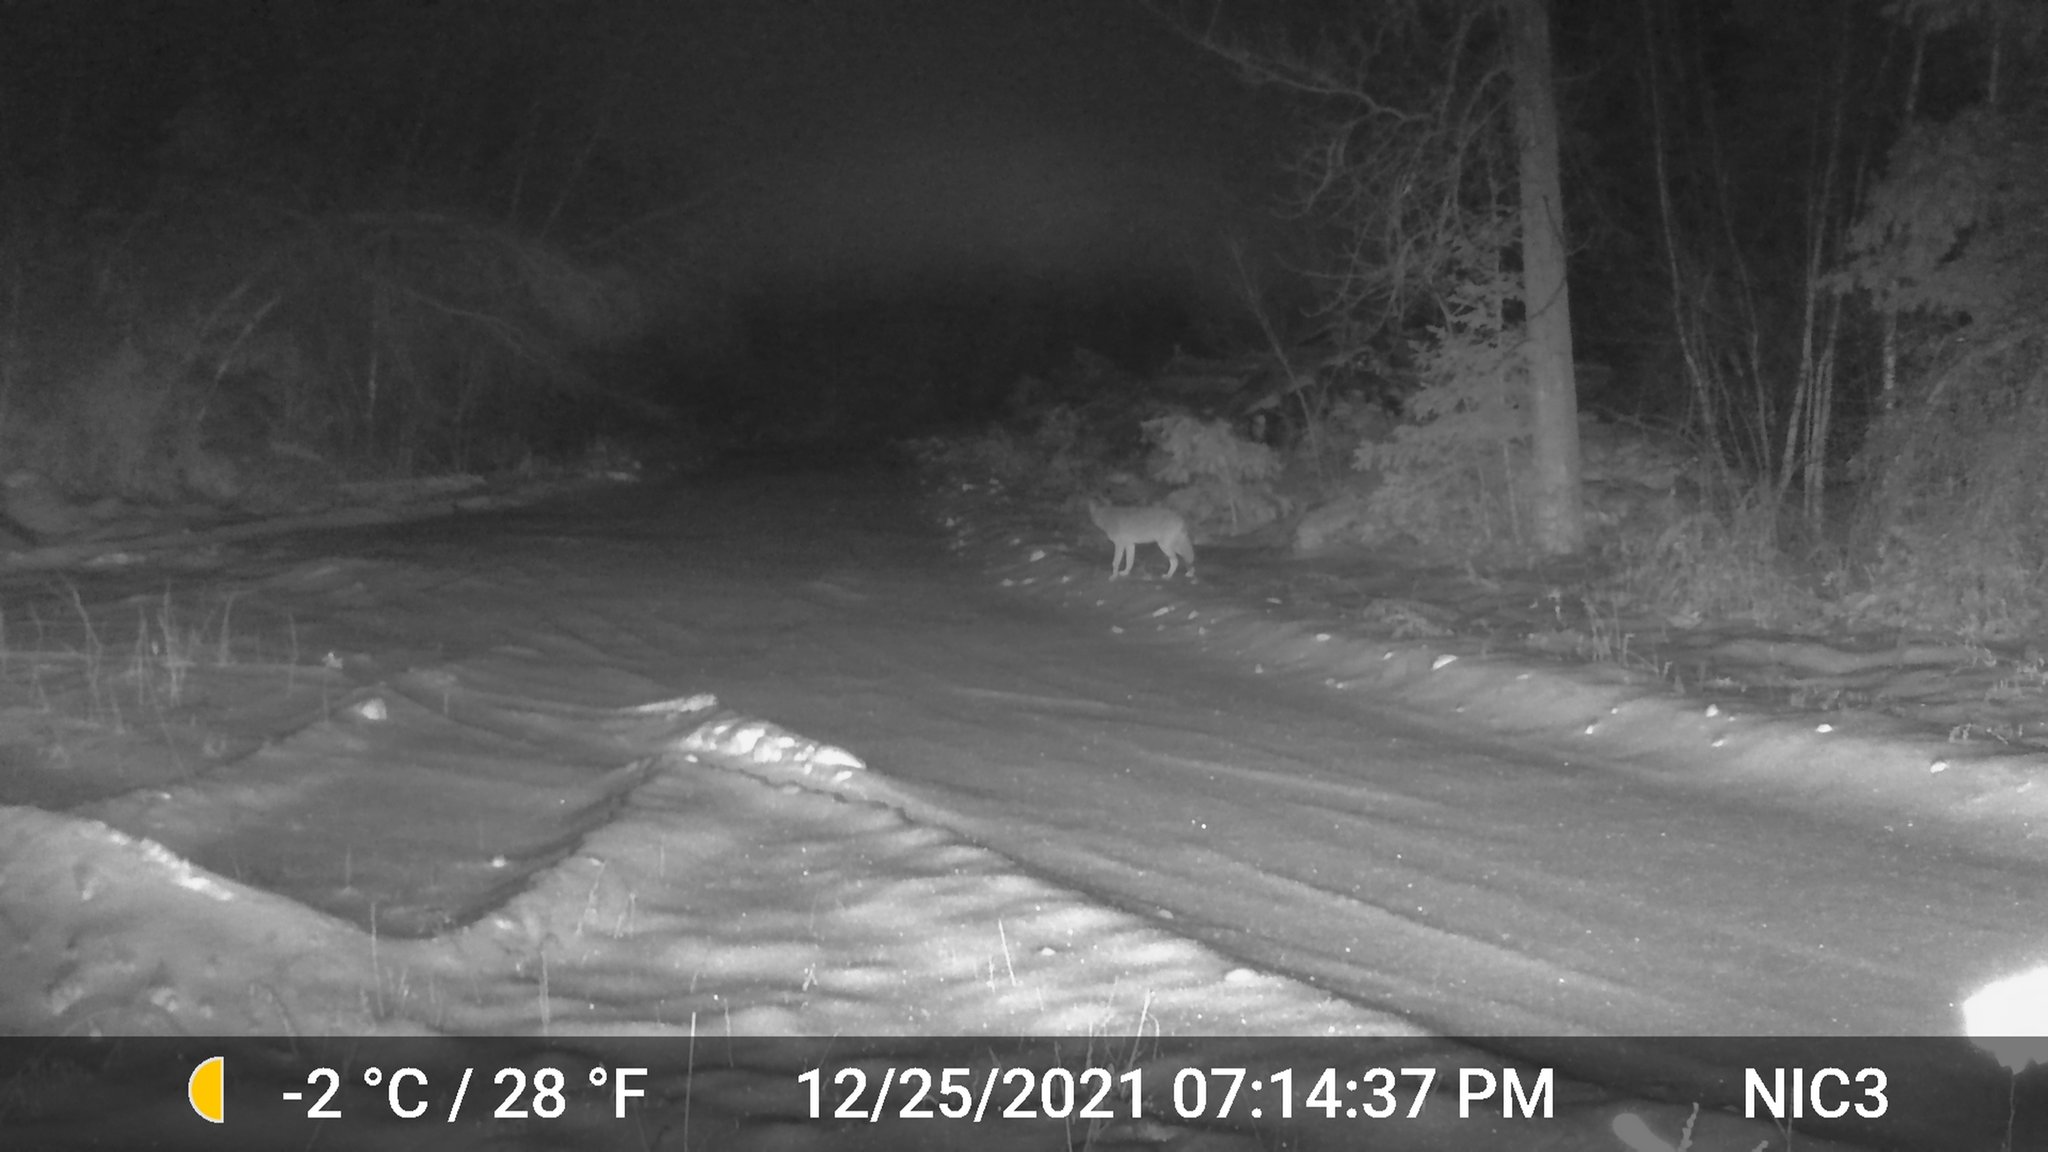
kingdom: Animalia
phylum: Chordata
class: Mammalia
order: Carnivora
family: Canidae
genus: Canis
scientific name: Canis latrans
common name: Coyote
